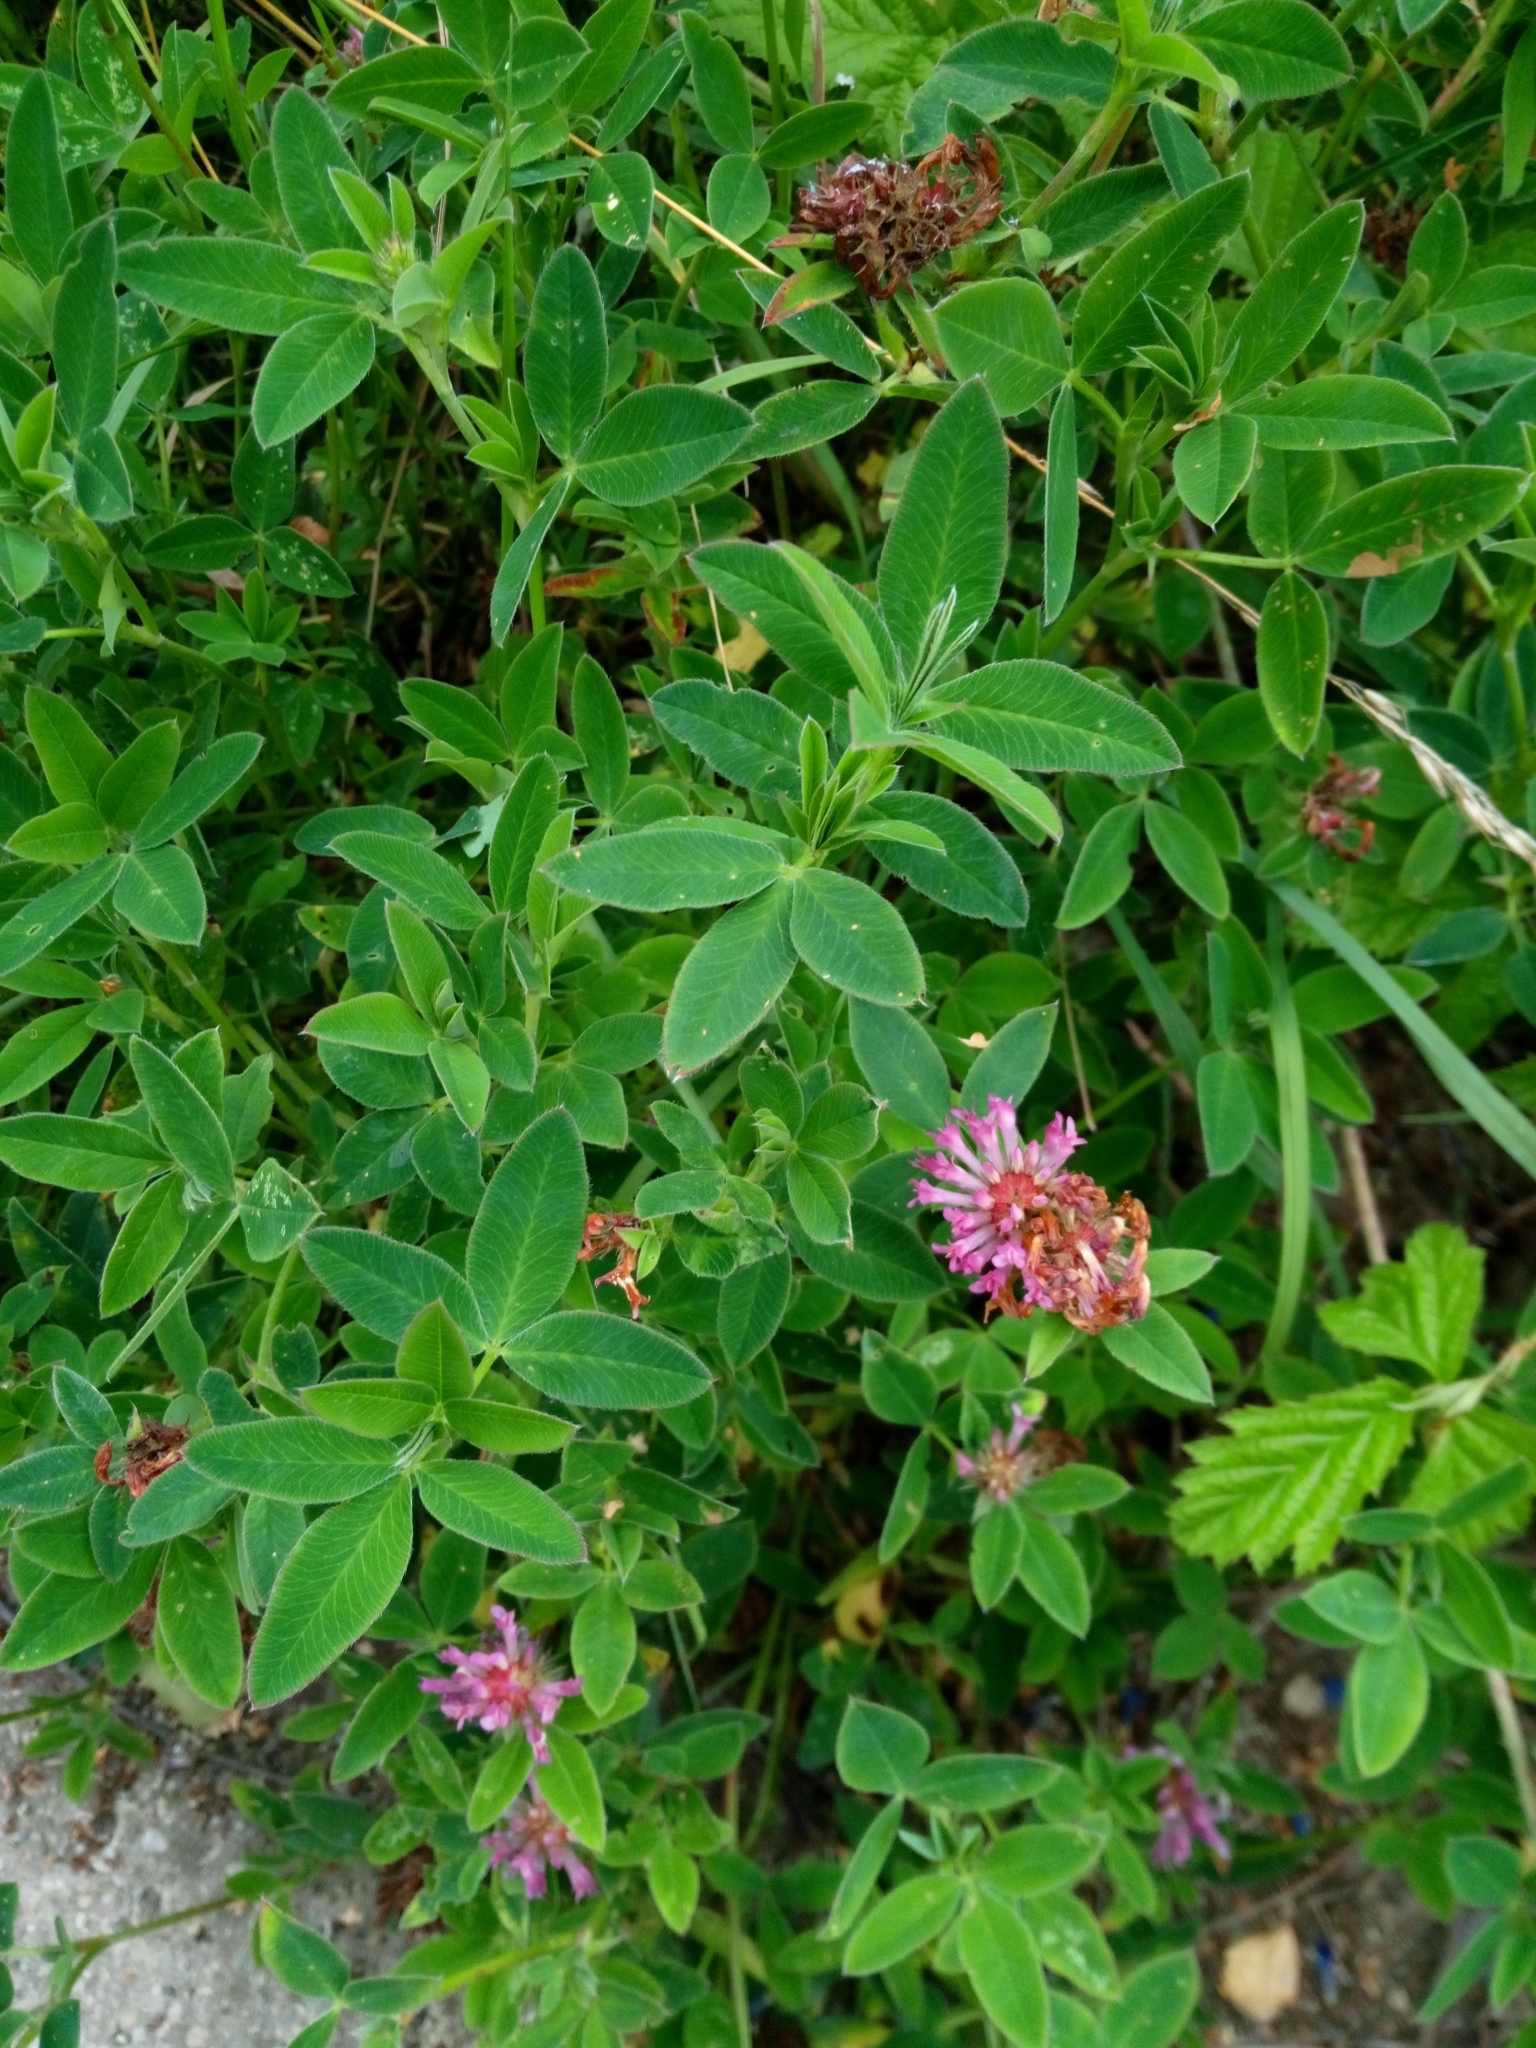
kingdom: Plantae
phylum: Tracheophyta
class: Magnoliopsida
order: Fabales
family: Fabaceae
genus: Trifolium
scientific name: Trifolium medium
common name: Zigzag clover
